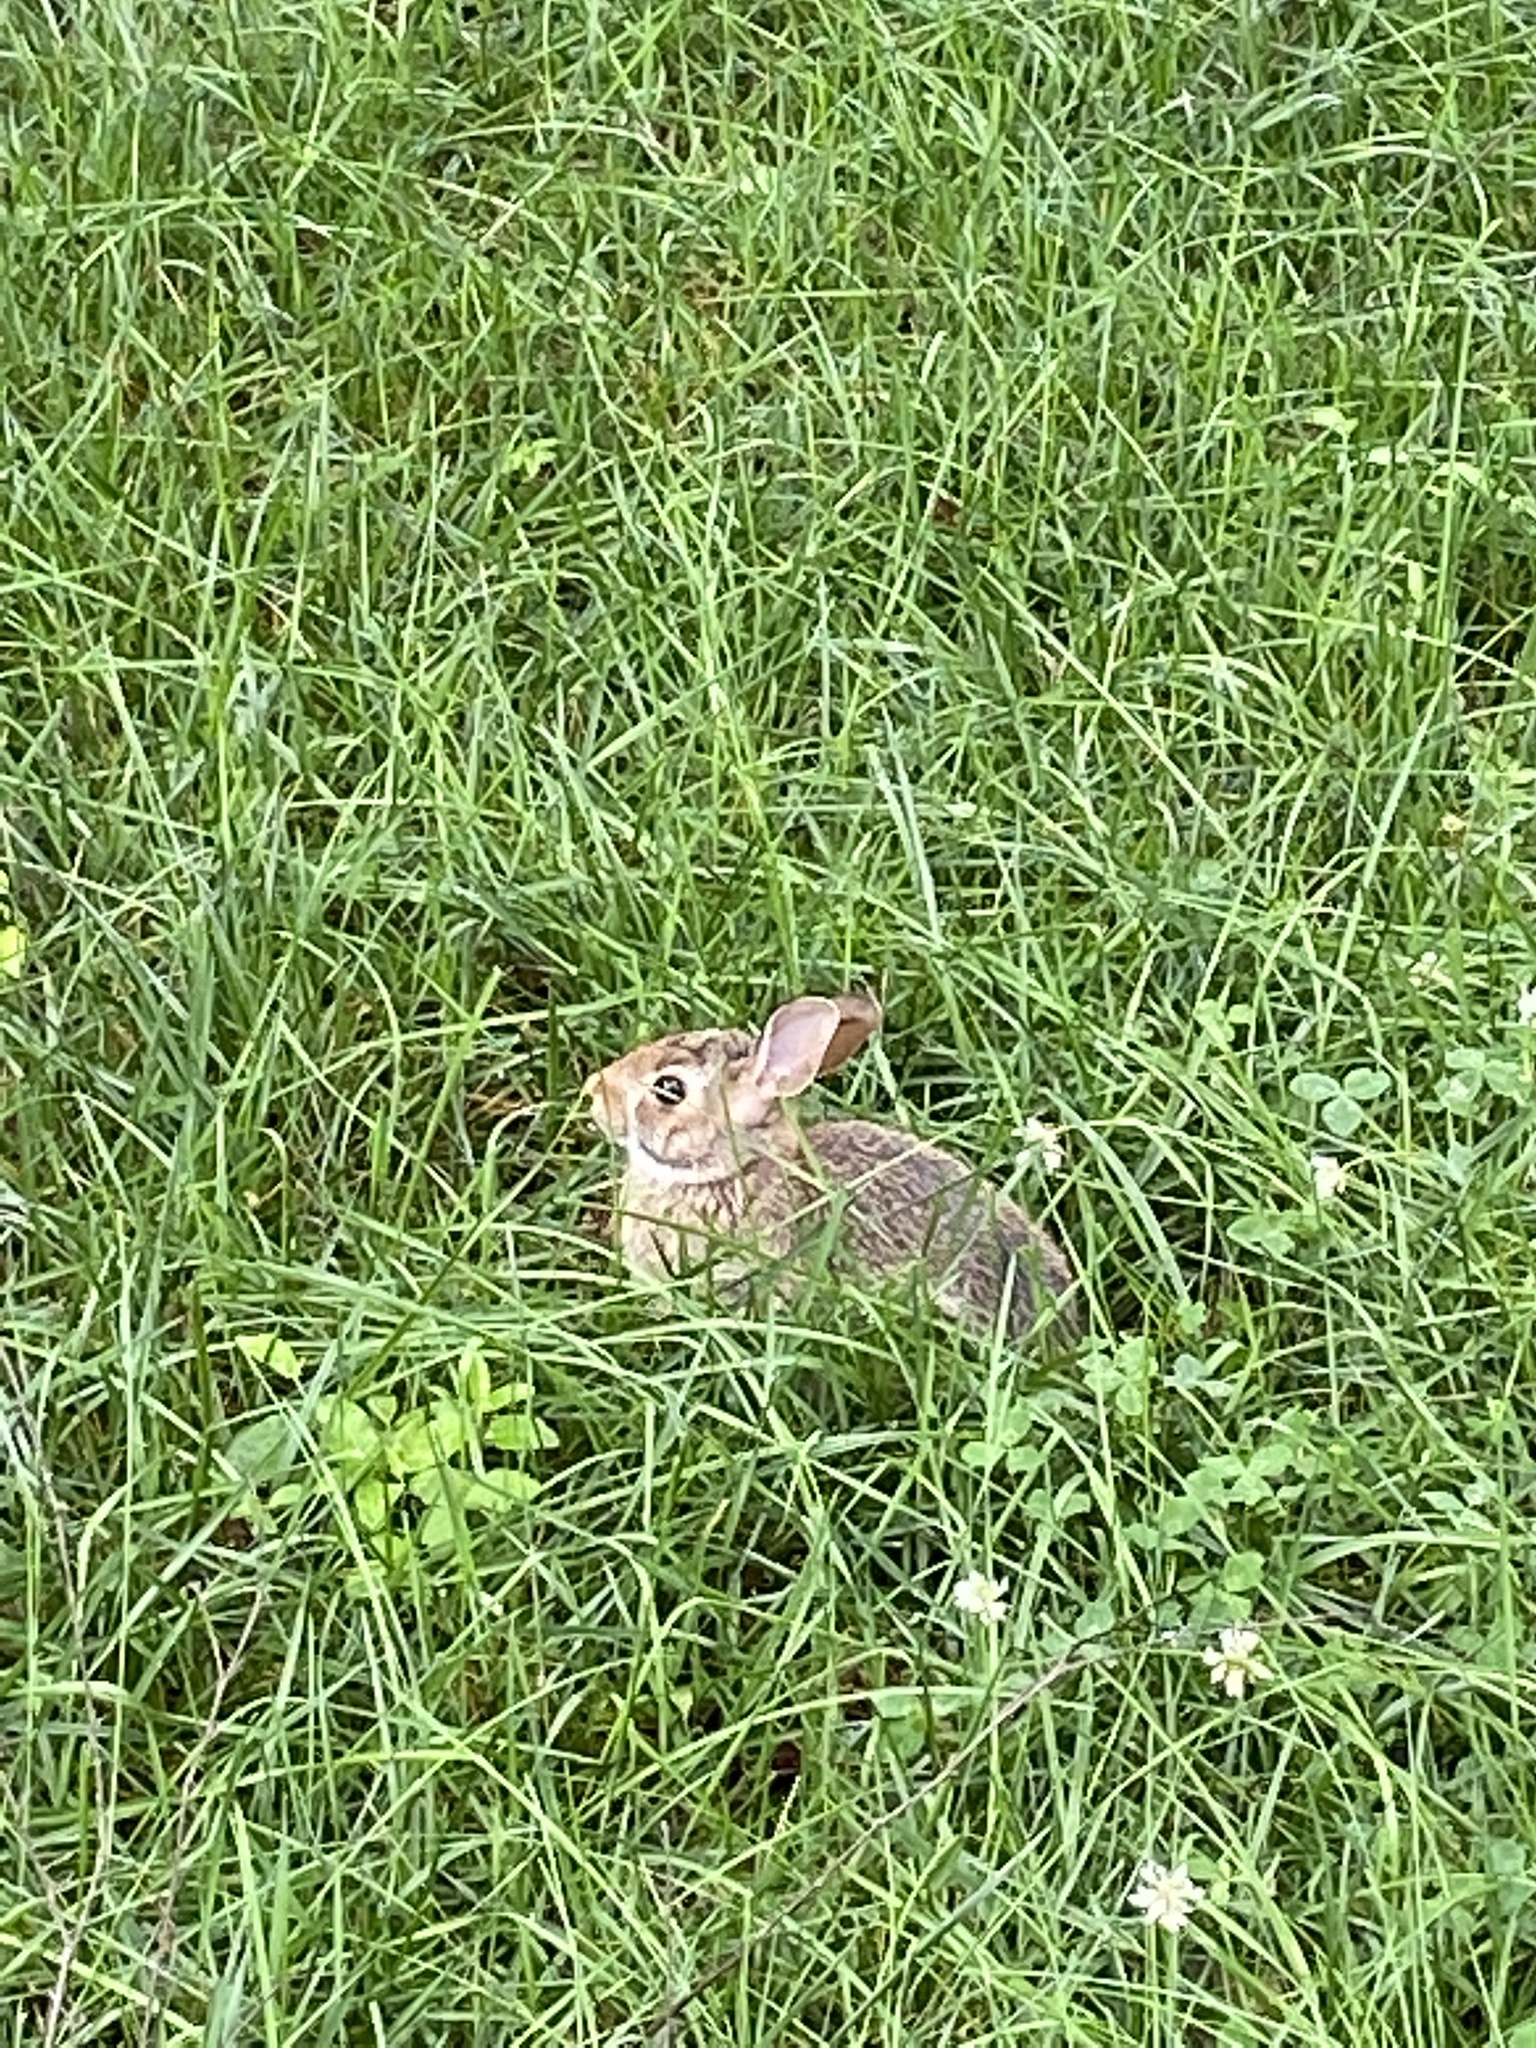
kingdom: Animalia
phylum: Chordata
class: Mammalia
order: Lagomorpha
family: Leporidae
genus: Sylvilagus
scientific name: Sylvilagus floridanus
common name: Eastern cottontail
